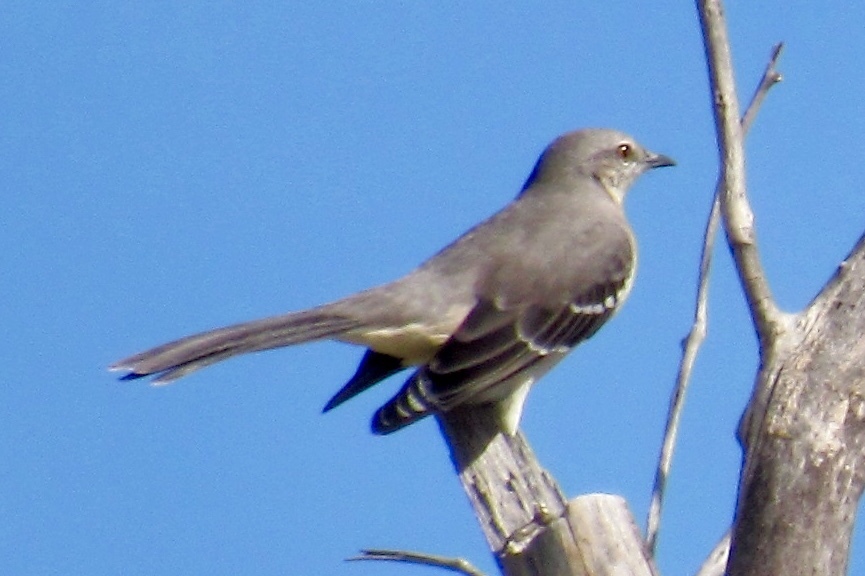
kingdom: Animalia
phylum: Chordata
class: Aves
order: Passeriformes
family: Mimidae
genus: Mimus
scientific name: Mimus polyglottos
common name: Northern mockingbird
